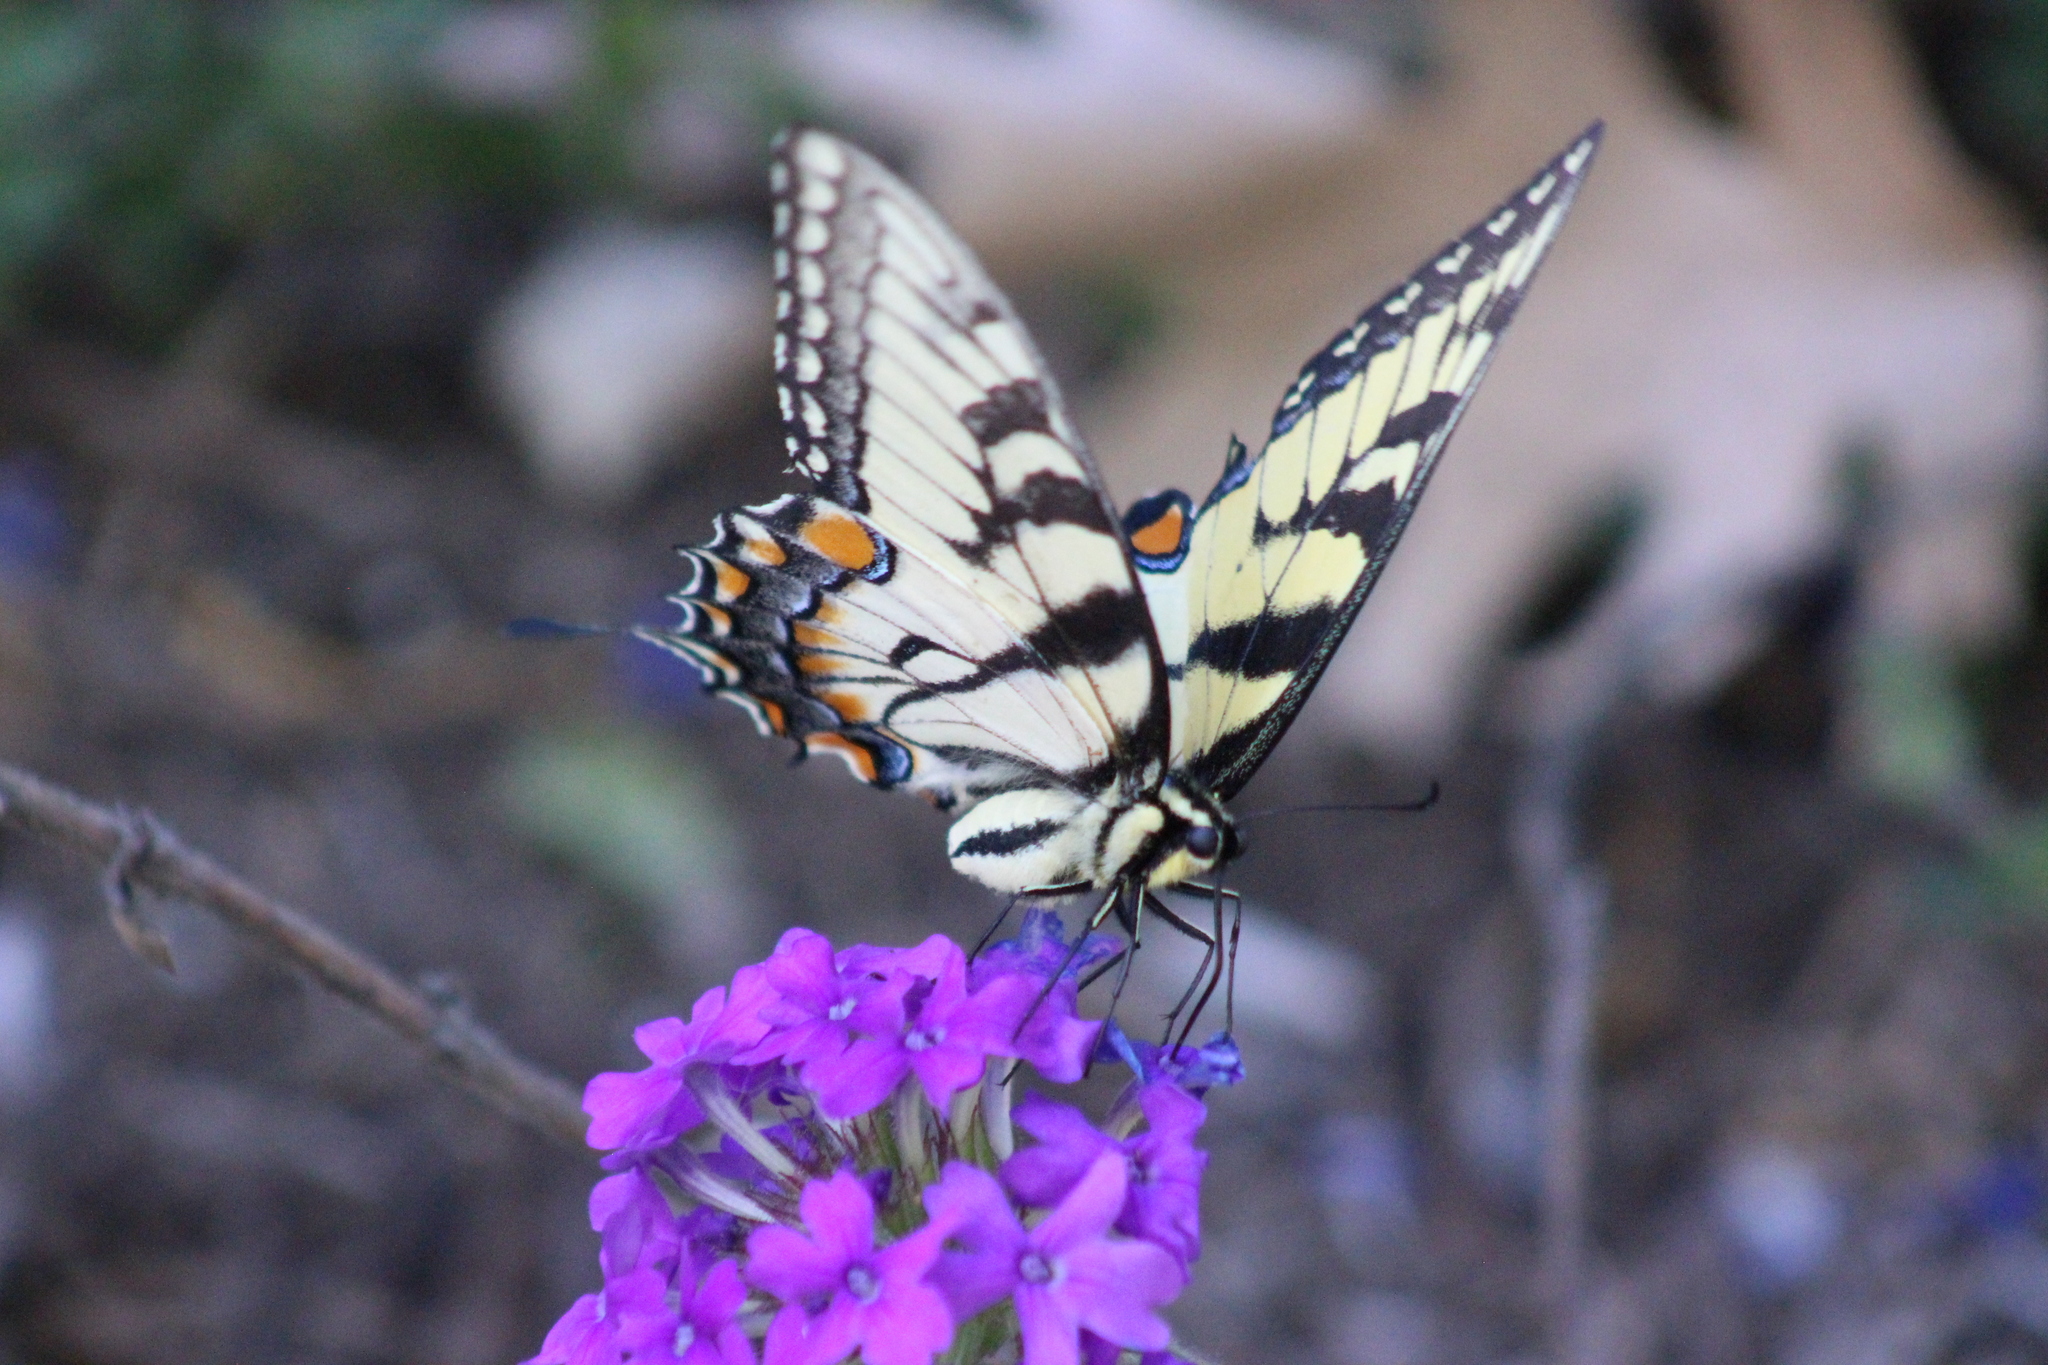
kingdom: Animalia
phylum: Arthropoda
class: Insecta
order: Lepidoptera
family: Papilionidae
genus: Papilio
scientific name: Papilio glaucus
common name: Tiger swallowtail
